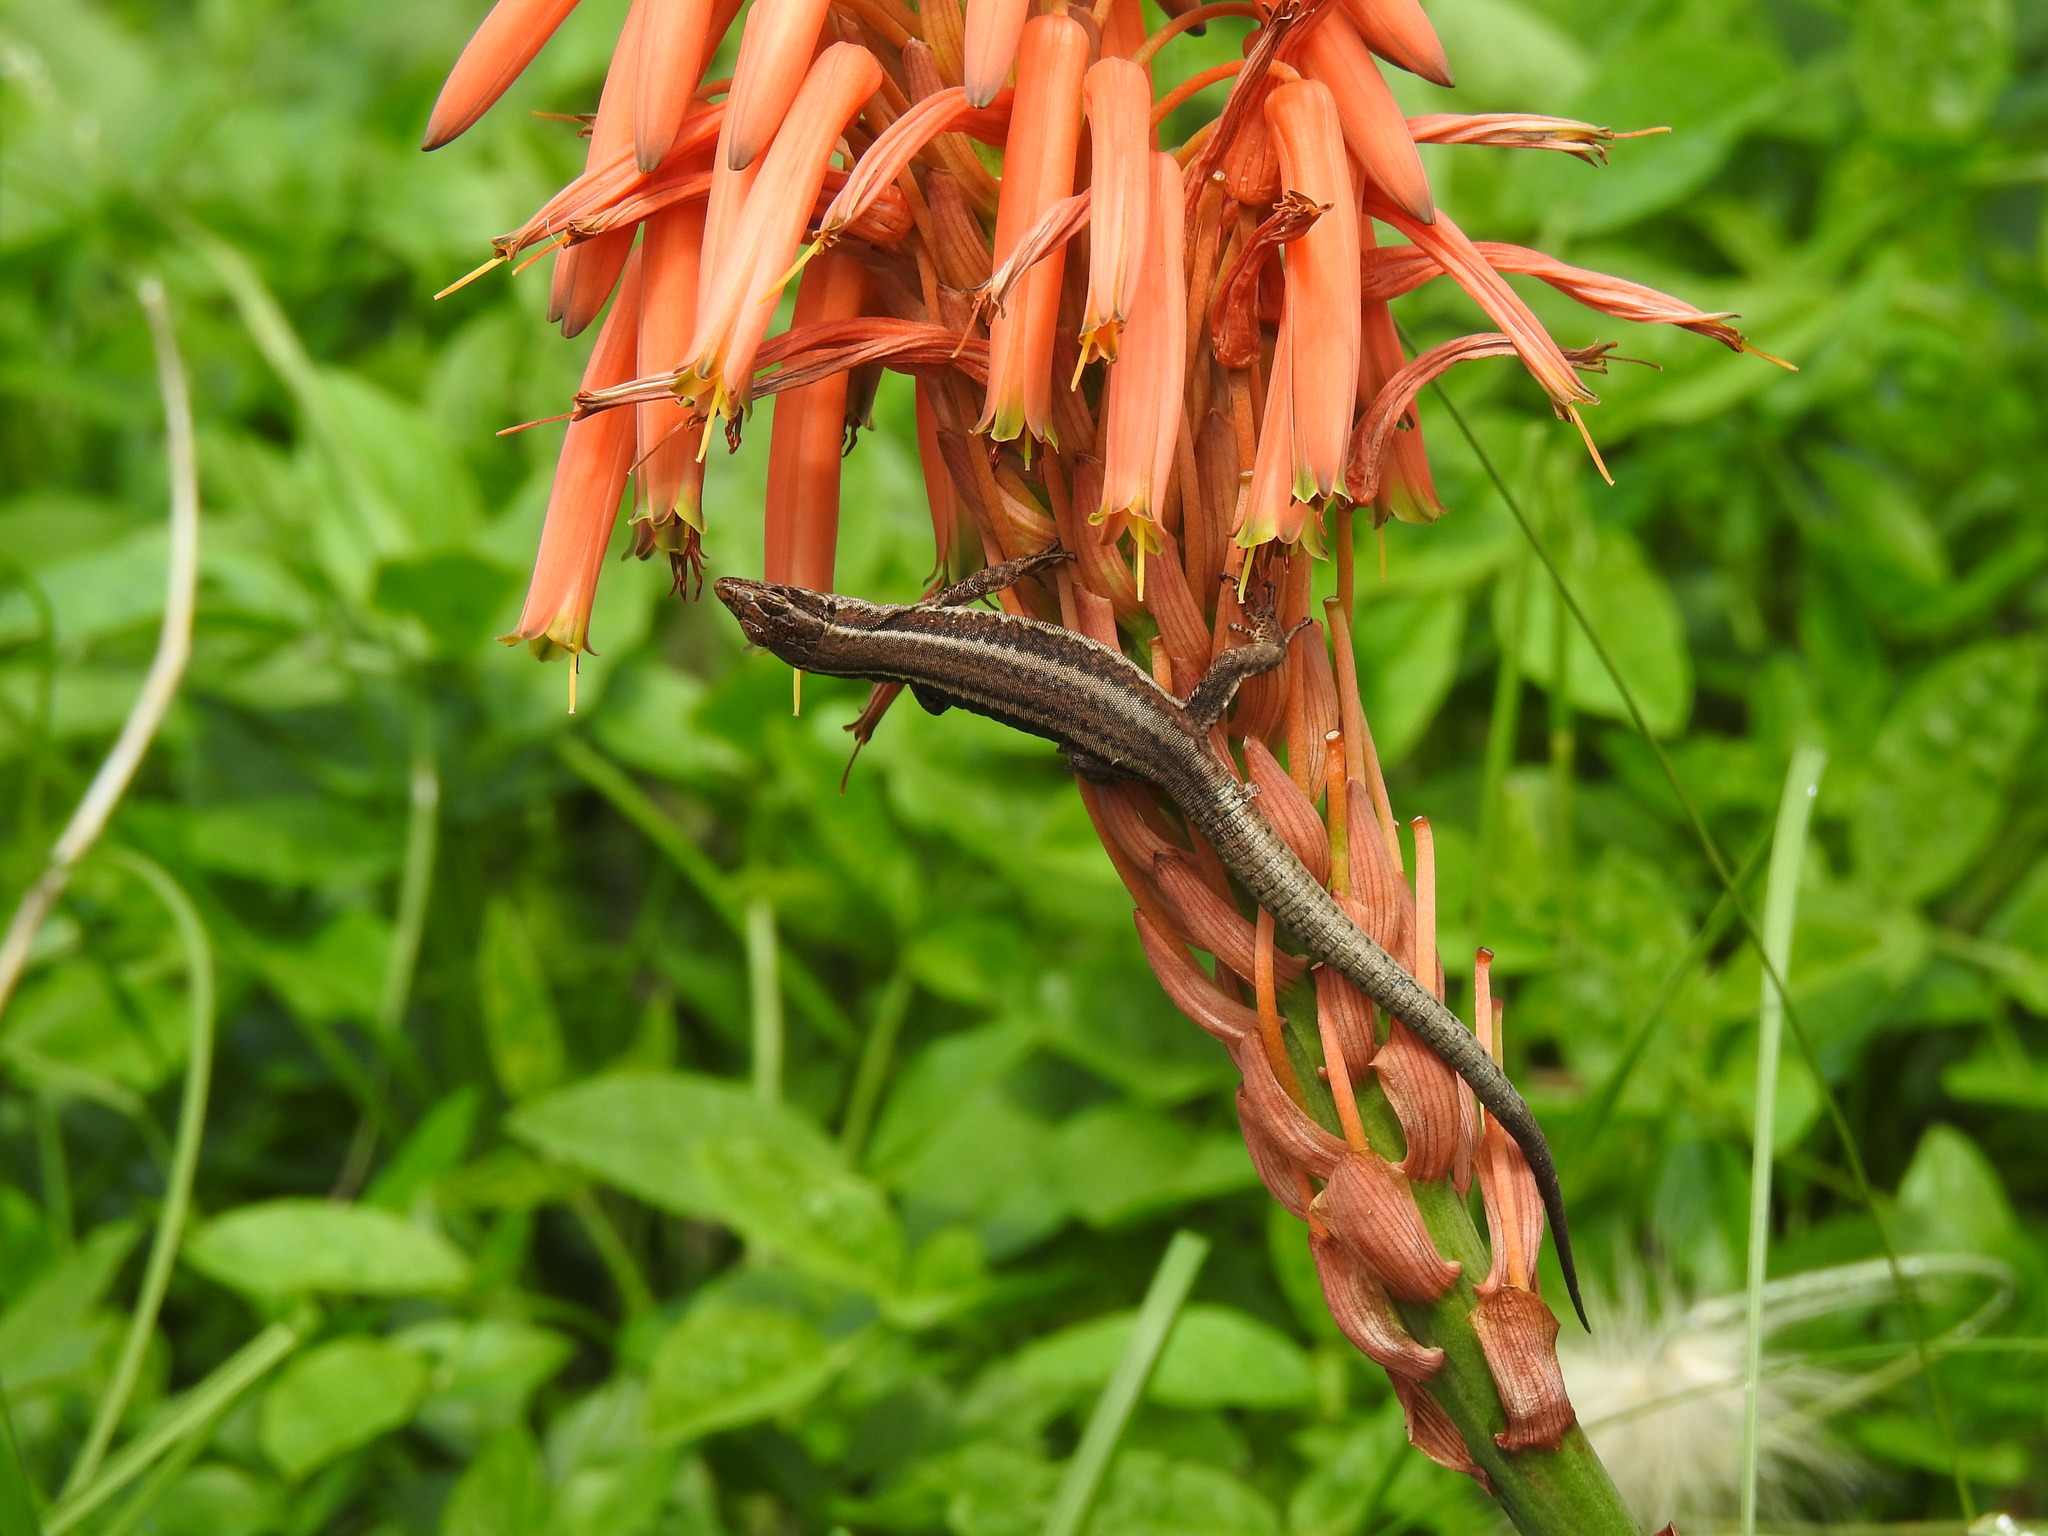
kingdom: Animalia
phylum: Chordata
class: Squamata
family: Lacertidae
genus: Teira
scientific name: Teira dugesii
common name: Madeira lizard
